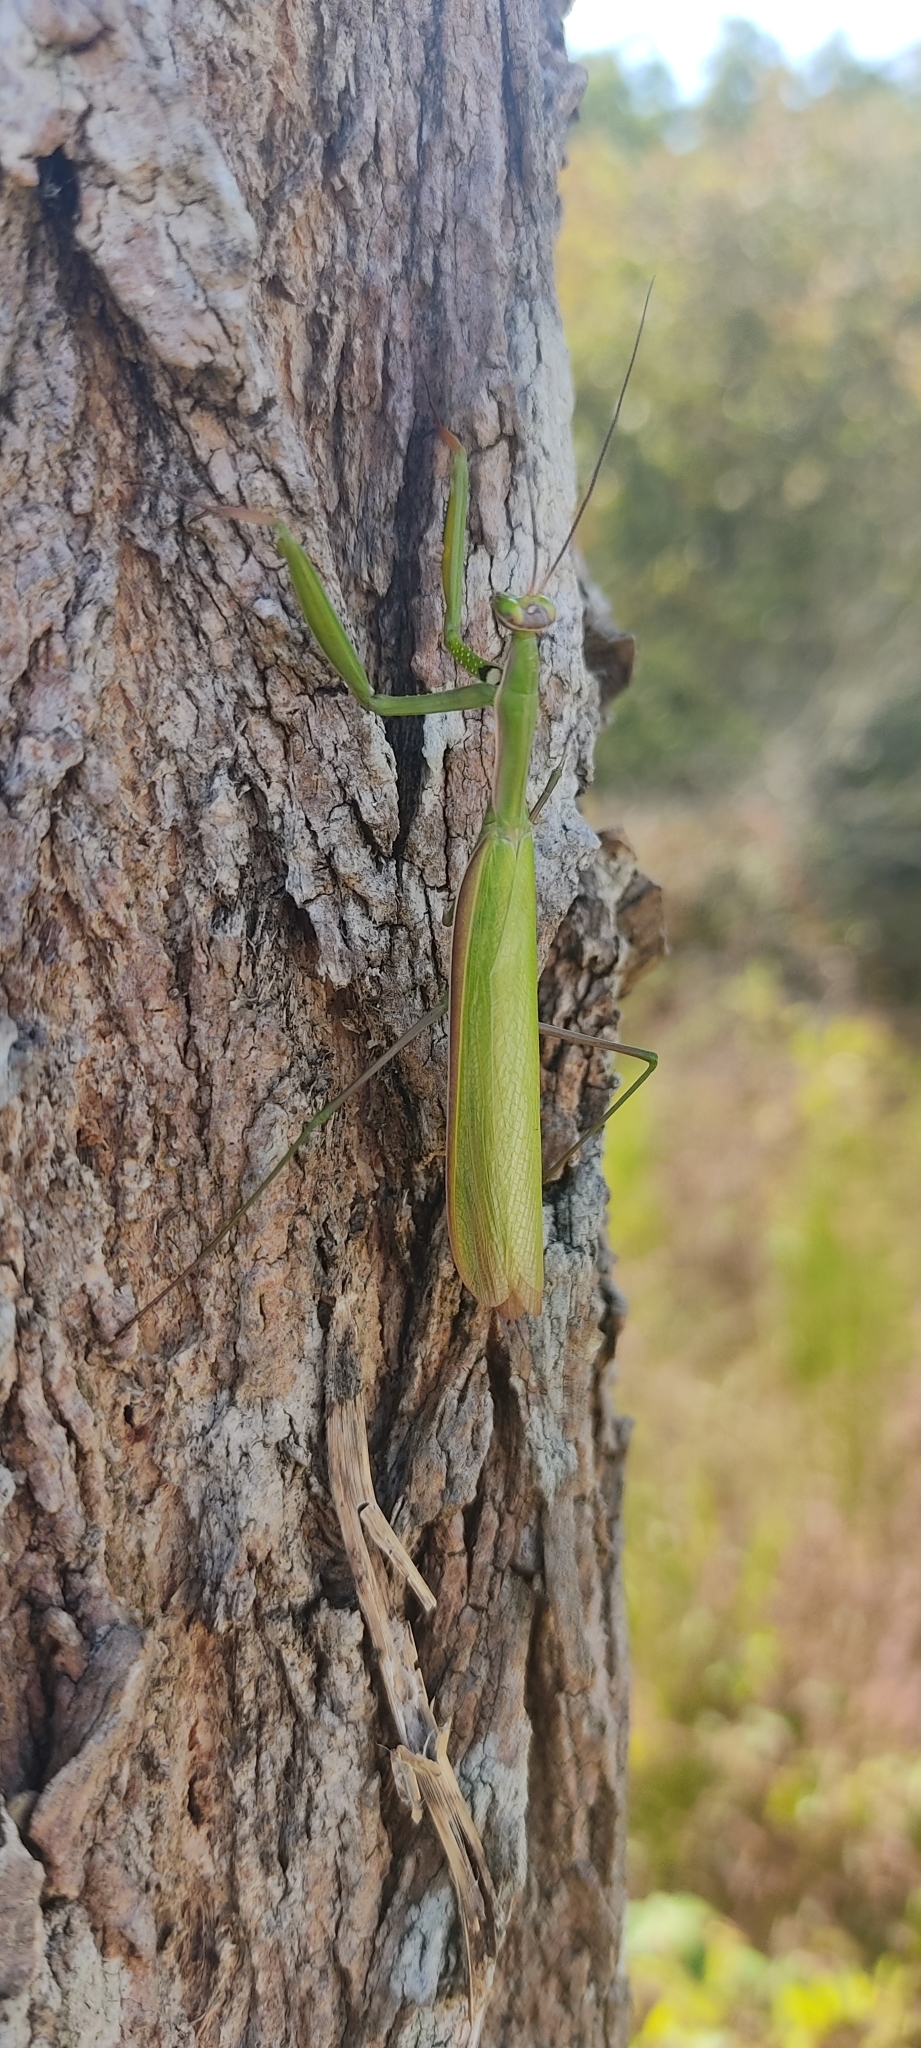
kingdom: Animalia
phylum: Arthropoda
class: Insecta
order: Mantodea
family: Mantidae
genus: Mantis
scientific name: Mantis religiosa
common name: Praying mantis
